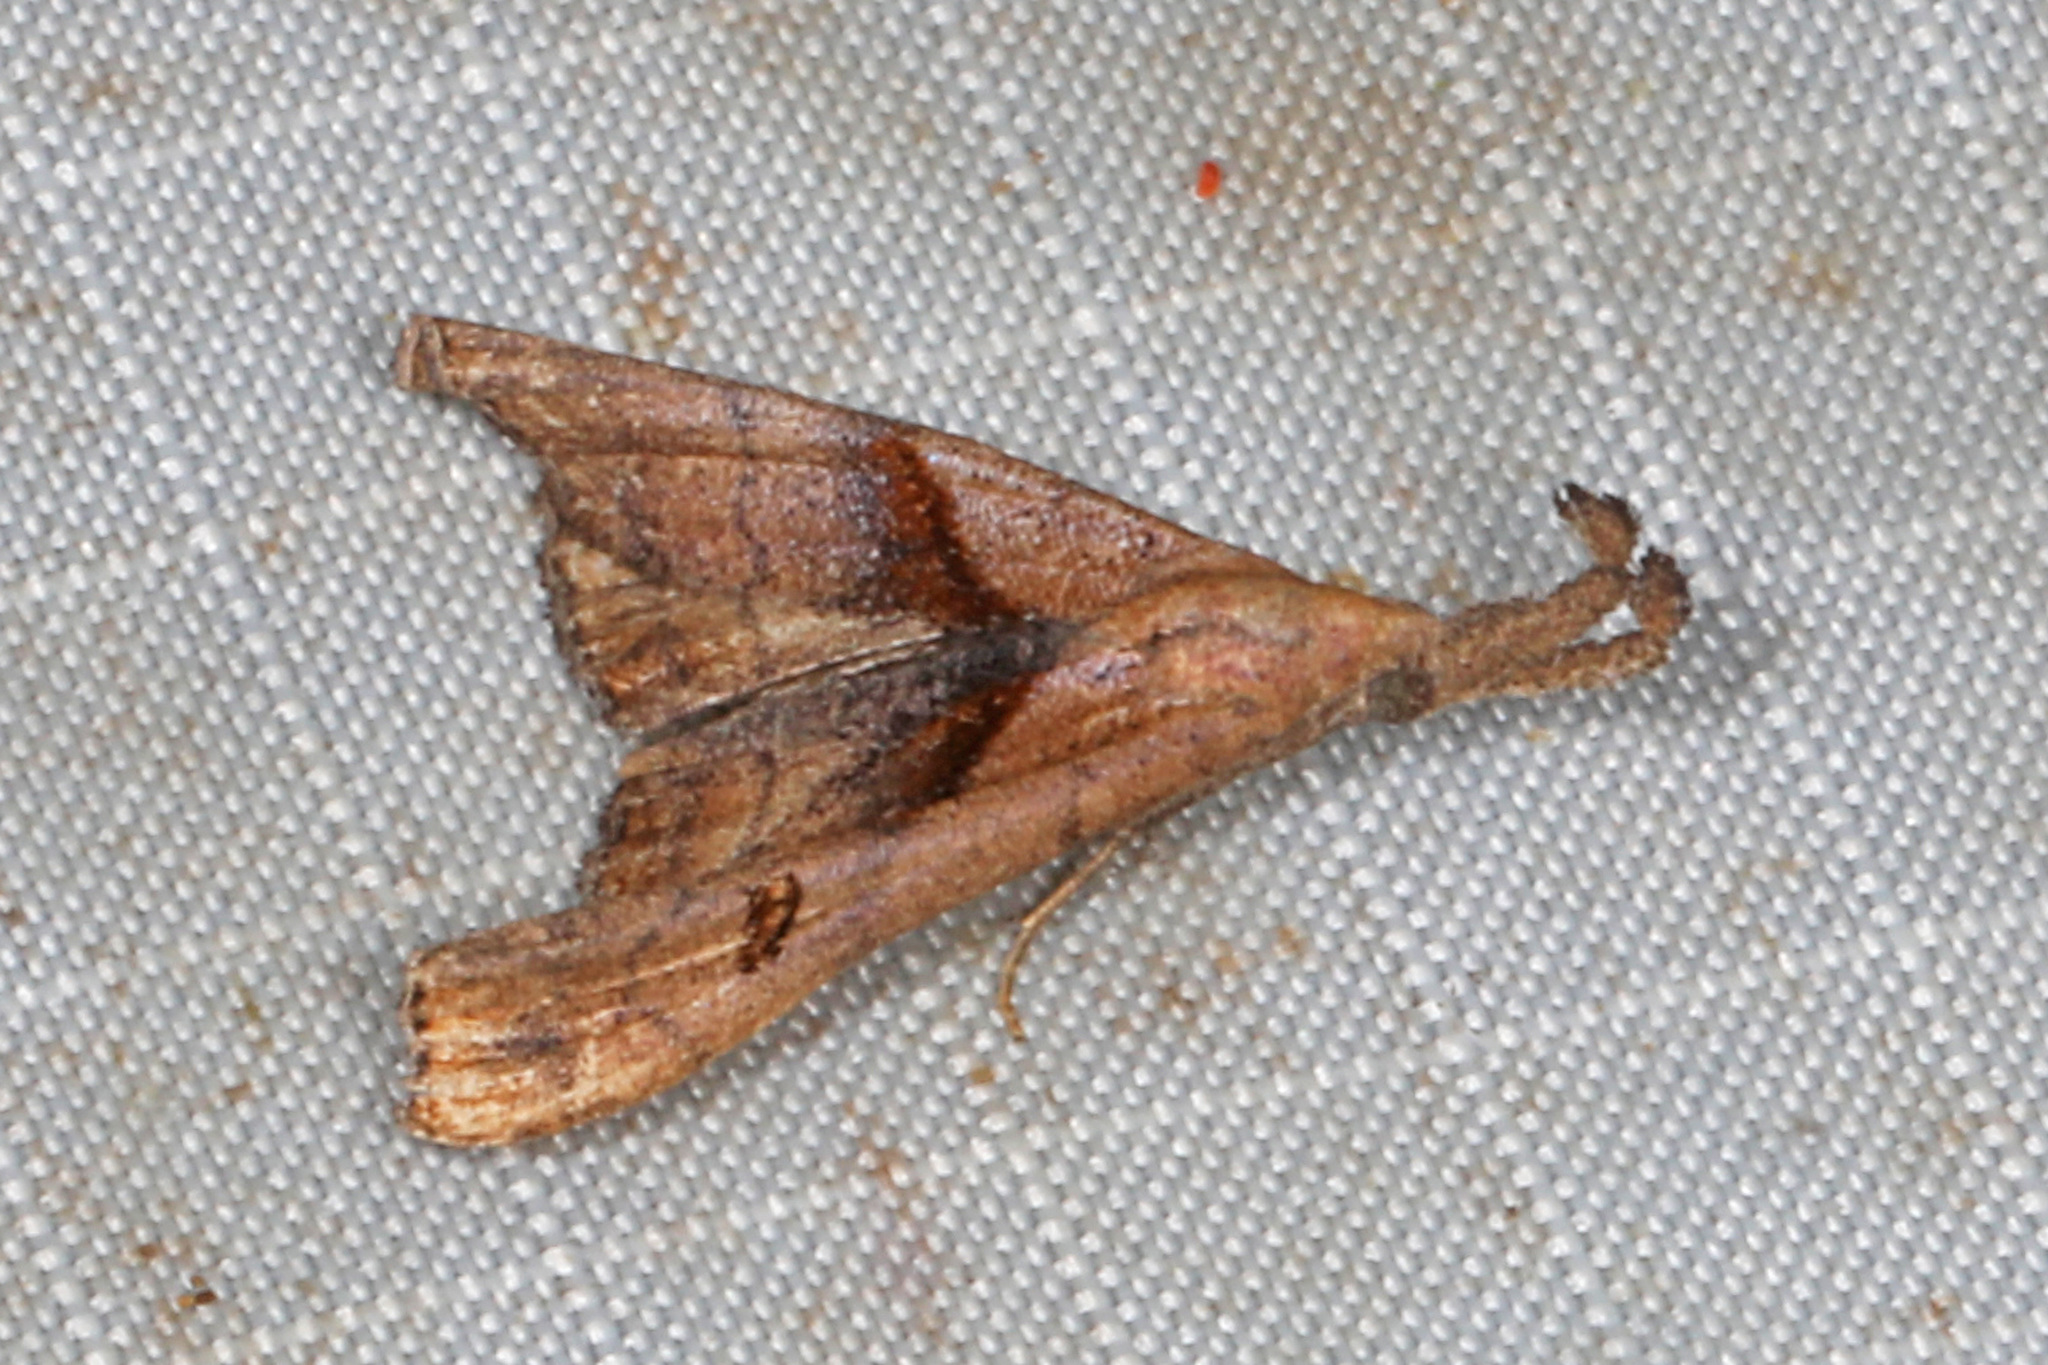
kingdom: Animalia
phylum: Arthropoda
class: Insecta
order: Lepidoptera
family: Erebidae
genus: Palthis
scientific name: Palthis angulalis
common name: Dark-spotted palthis moth
